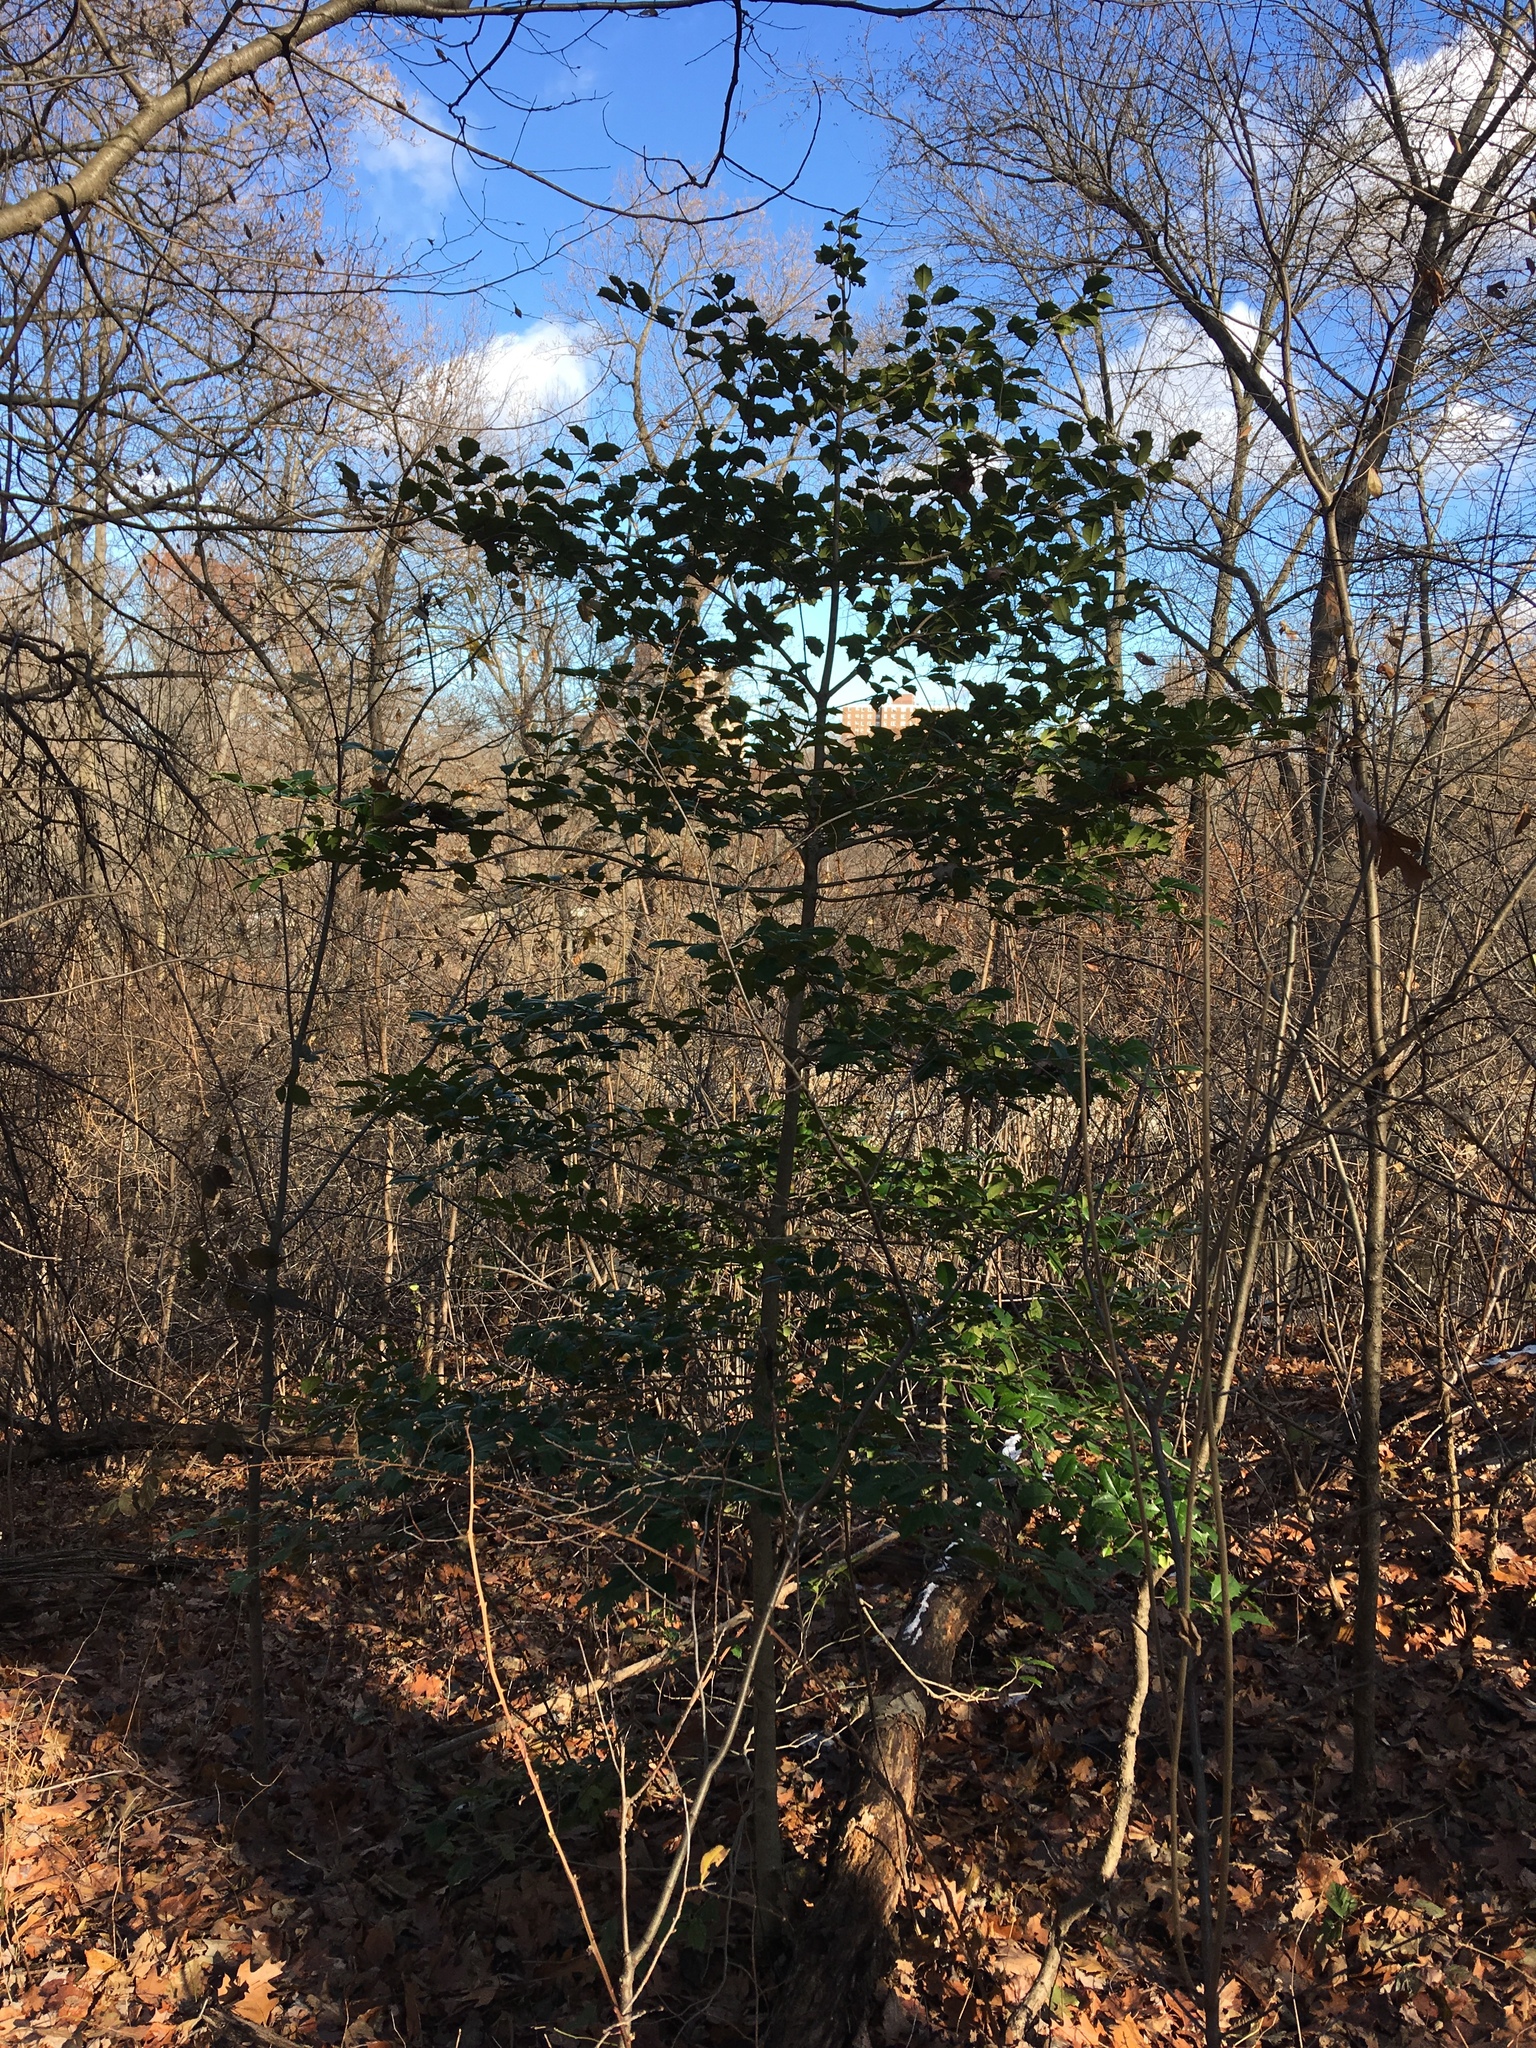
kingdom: Plantae
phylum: Tracheophyta
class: Magnoliopsida
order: Aquifoliales
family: Aquifoliaceae
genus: Ilex
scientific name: Ilex opaca
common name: American holly
